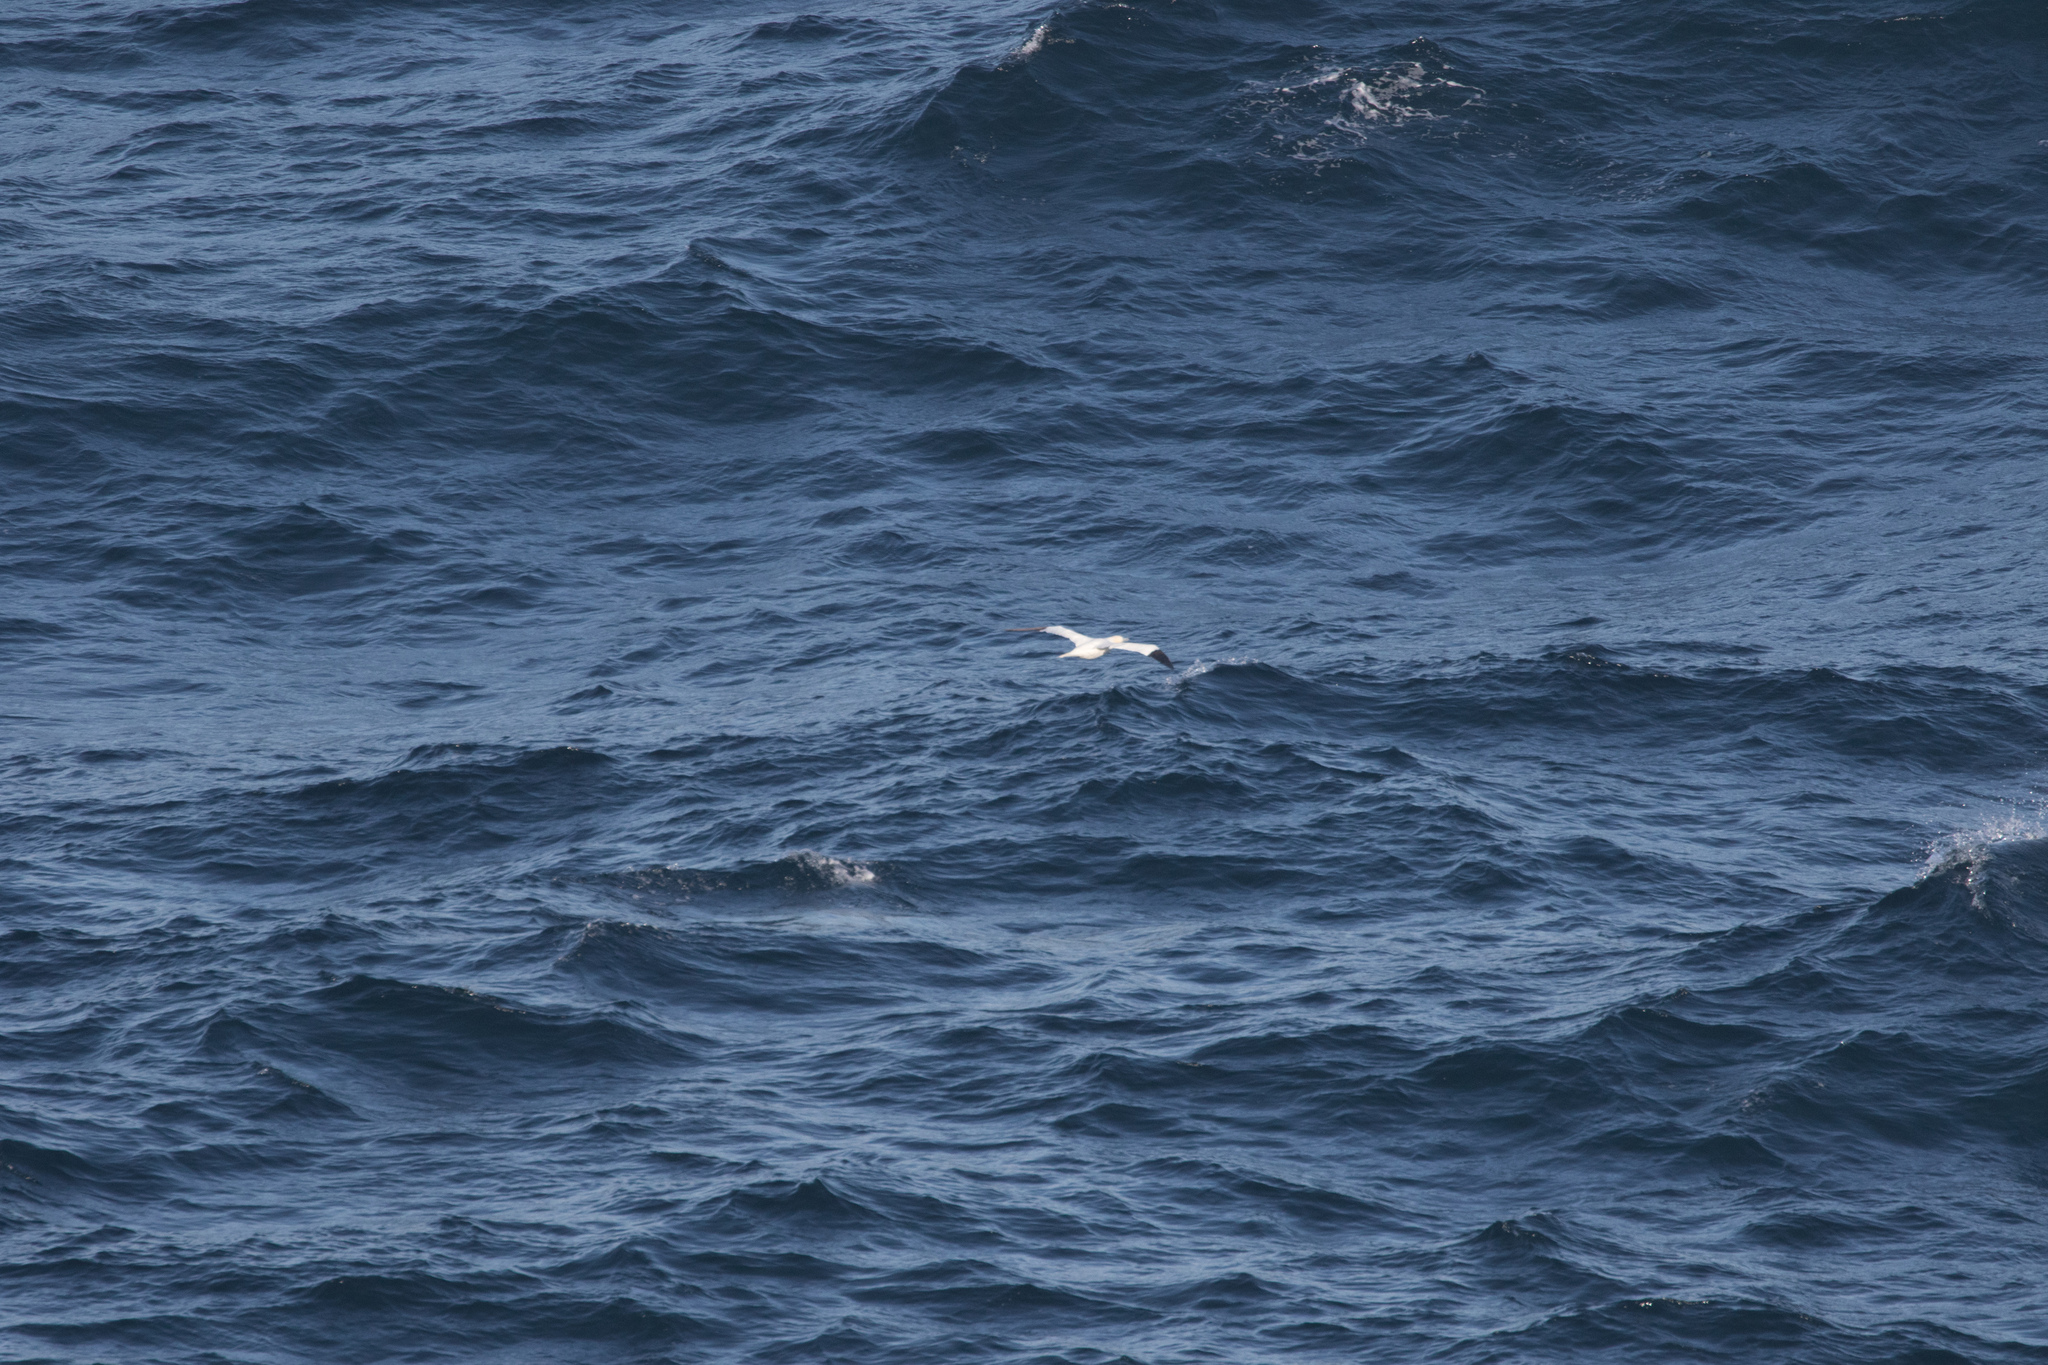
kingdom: Animalia
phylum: Chordata
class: Aves
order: Suliformes
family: Sulidae
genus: Morus
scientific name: Morus bassanus
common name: Northern gannet
